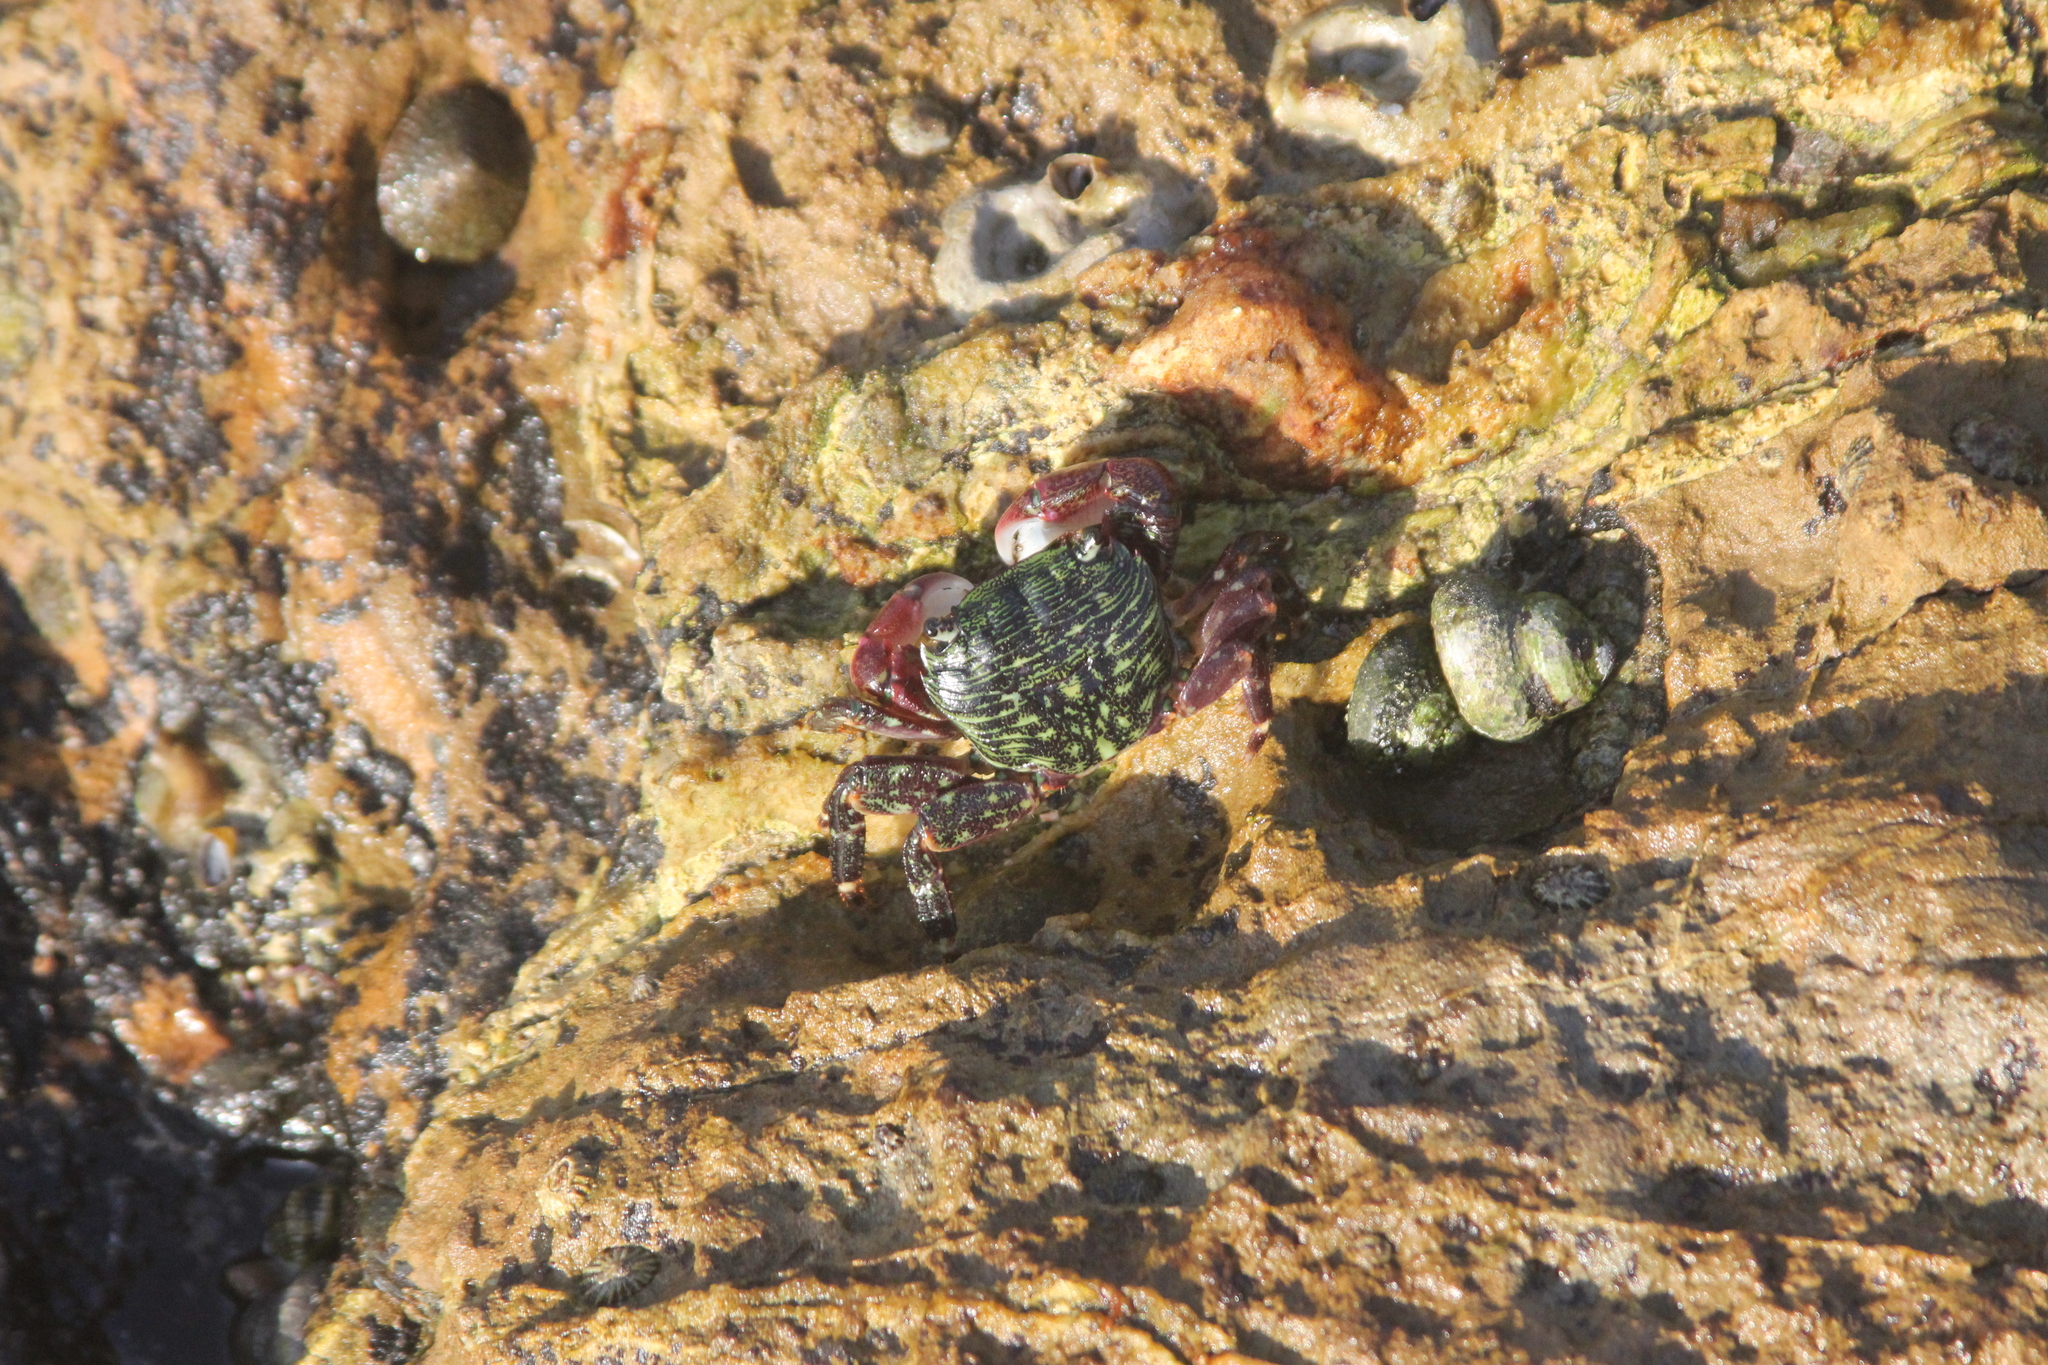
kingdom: Animalia
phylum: Arthropoda
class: Malacostraca
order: Decapoda
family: Grapsidae
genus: Pachygrapsus
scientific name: Pachygrapsus crassipes
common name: Striped shore crab
